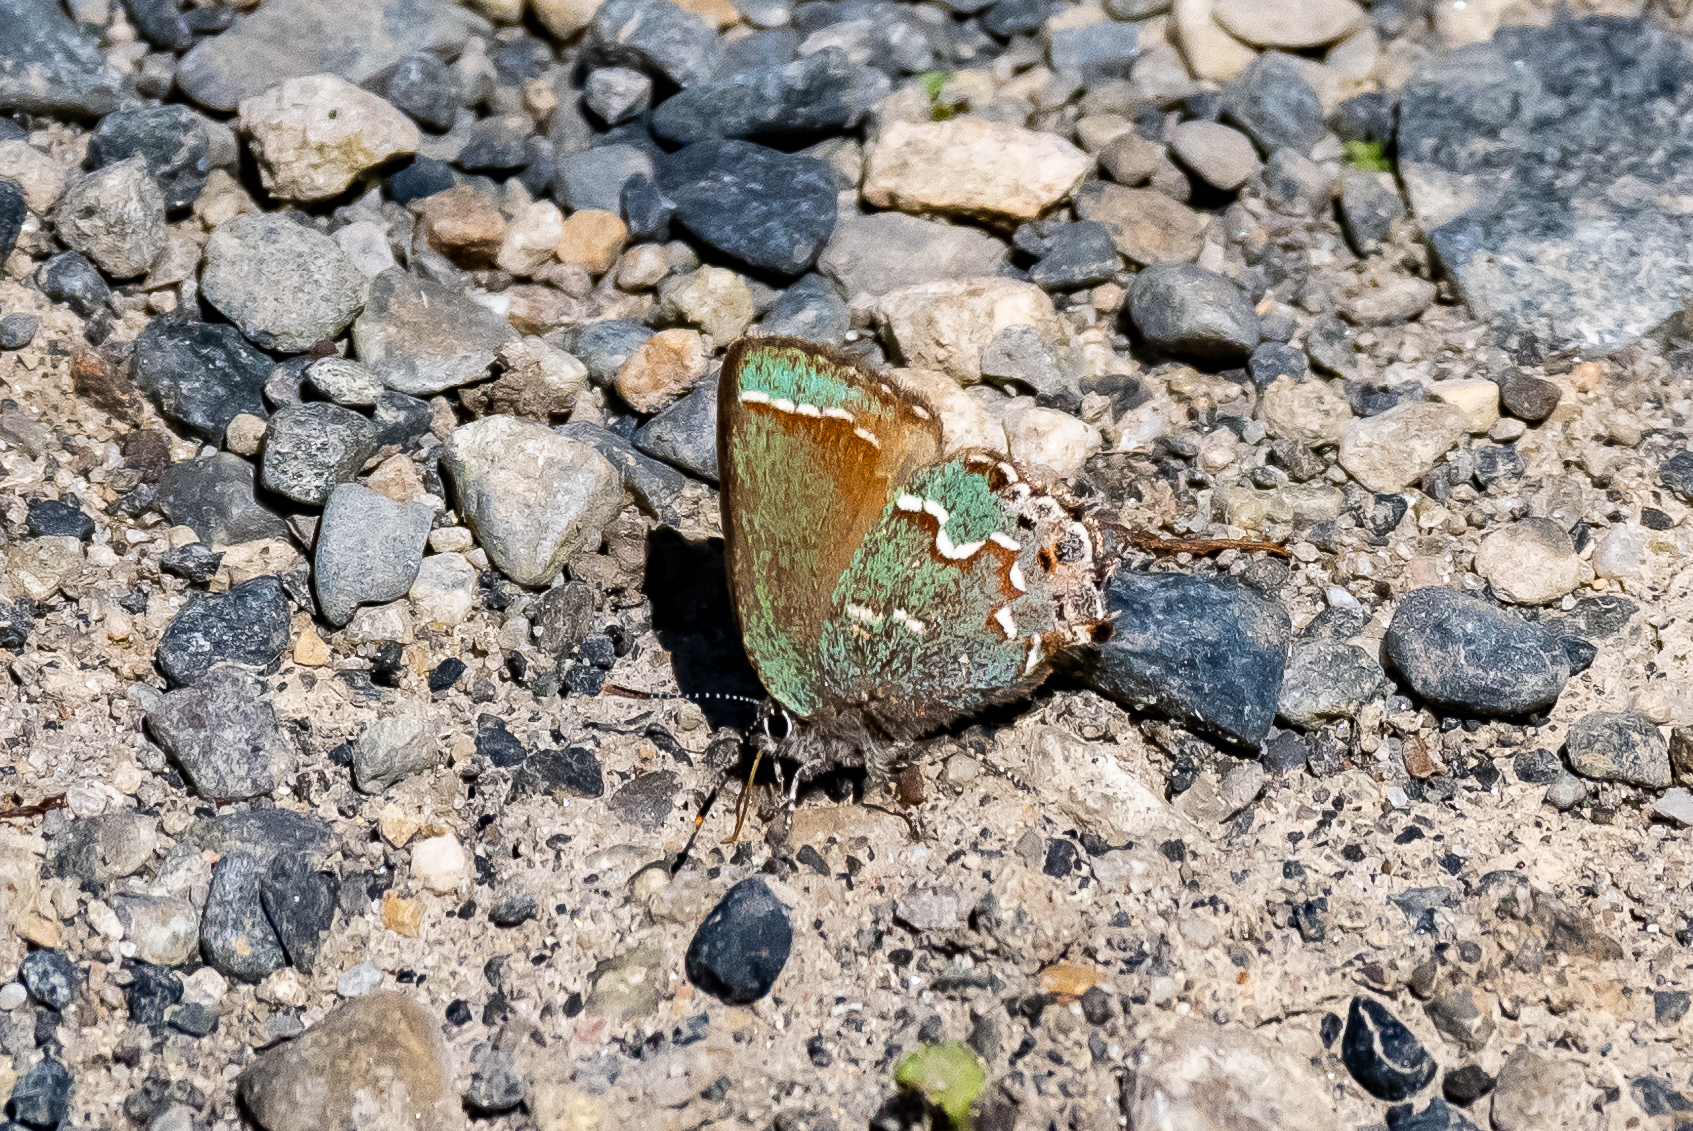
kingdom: Animalia
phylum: Arthropoda
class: Insecta
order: Lepidoptera
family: Lycaenidae
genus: Mitoura
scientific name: Mitoura gryneus
